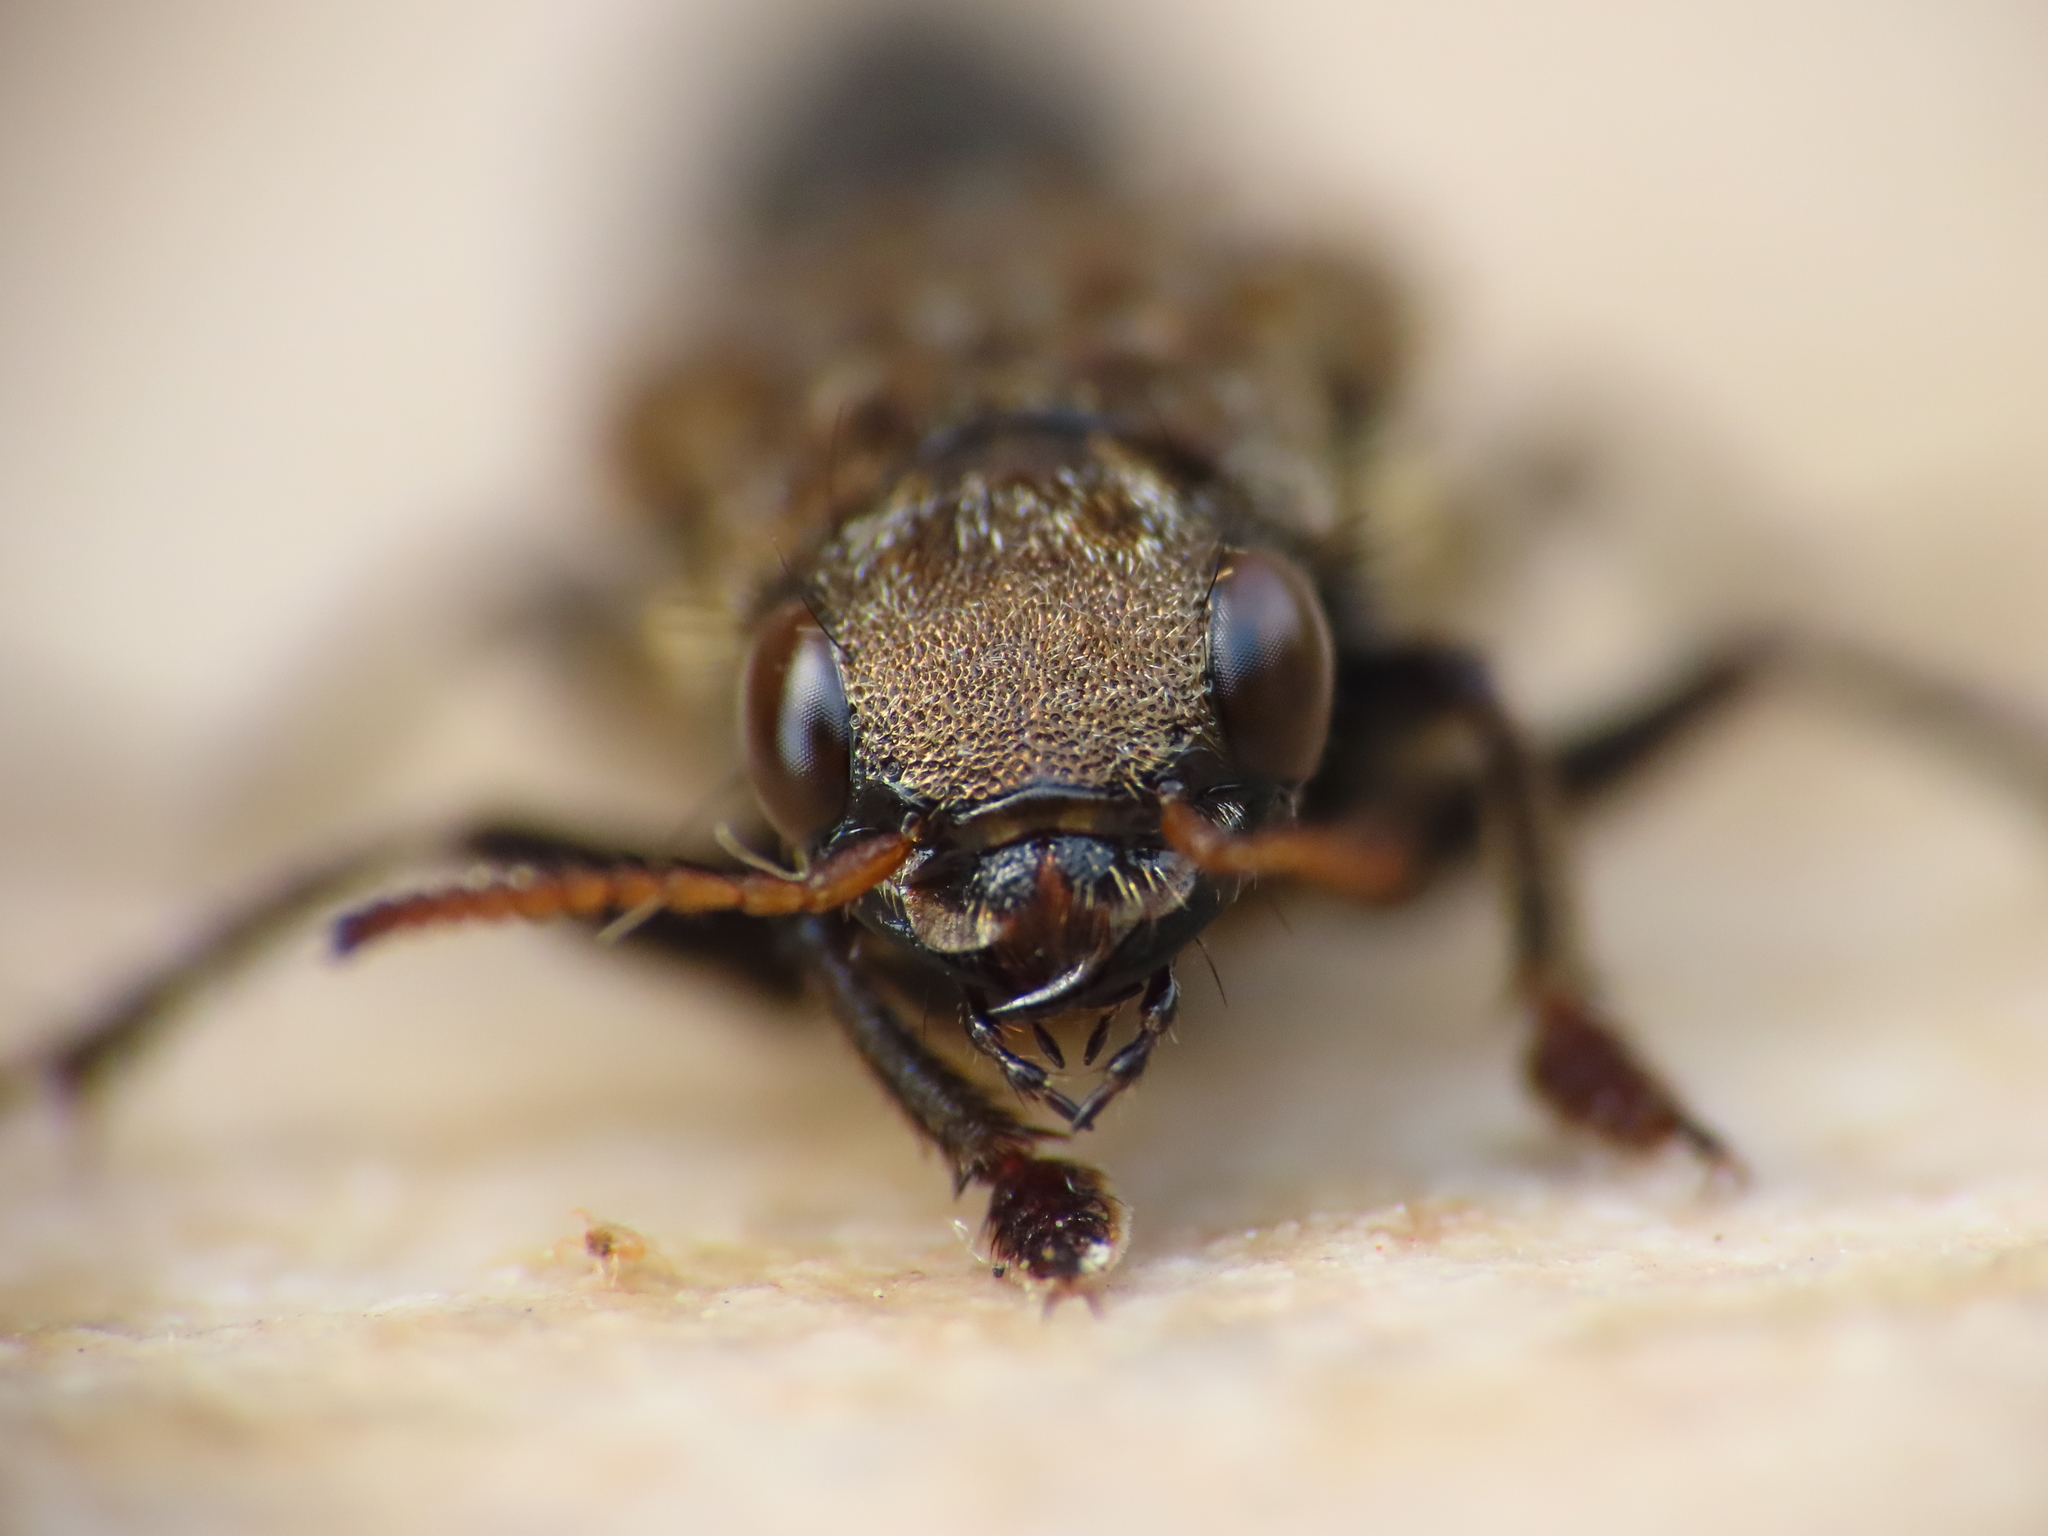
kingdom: Animalia
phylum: Arthropoda
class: Insecta
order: Coleoptera
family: Staphylinidae
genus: Ontholestes
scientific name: Ontholestes murinus
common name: Staph beetle
